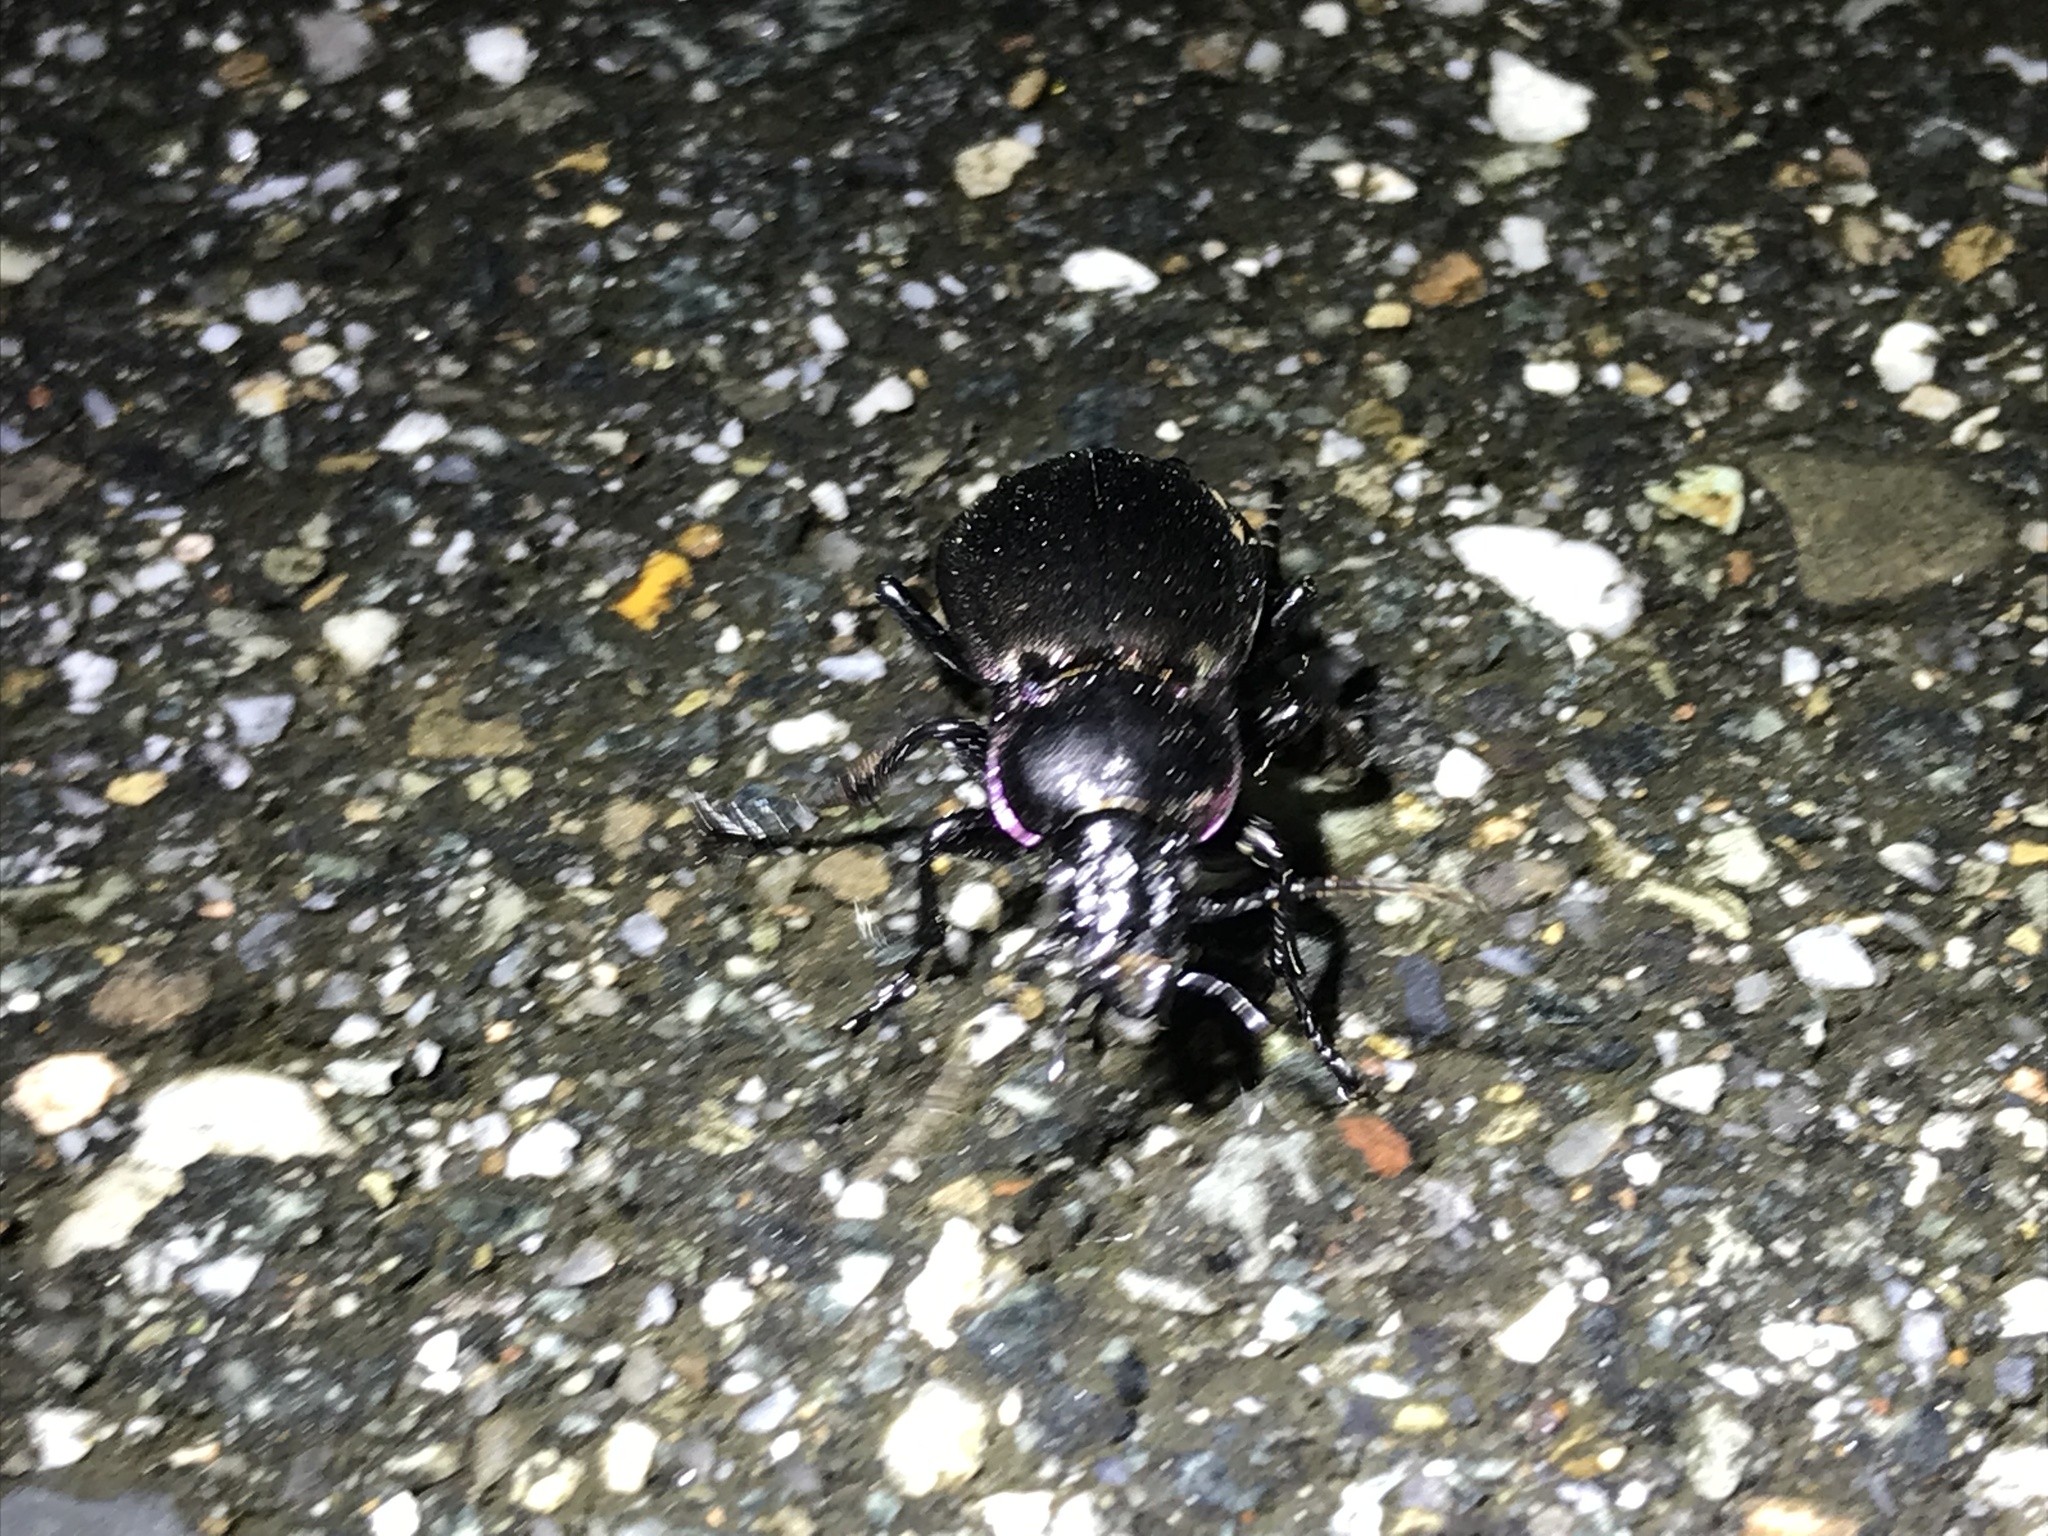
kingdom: Animalia
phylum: Arthropoda
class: Insecta
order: Coleoptera
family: Carabidae
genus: Carabus
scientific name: Carabus nemoralis
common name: European ground beetle
